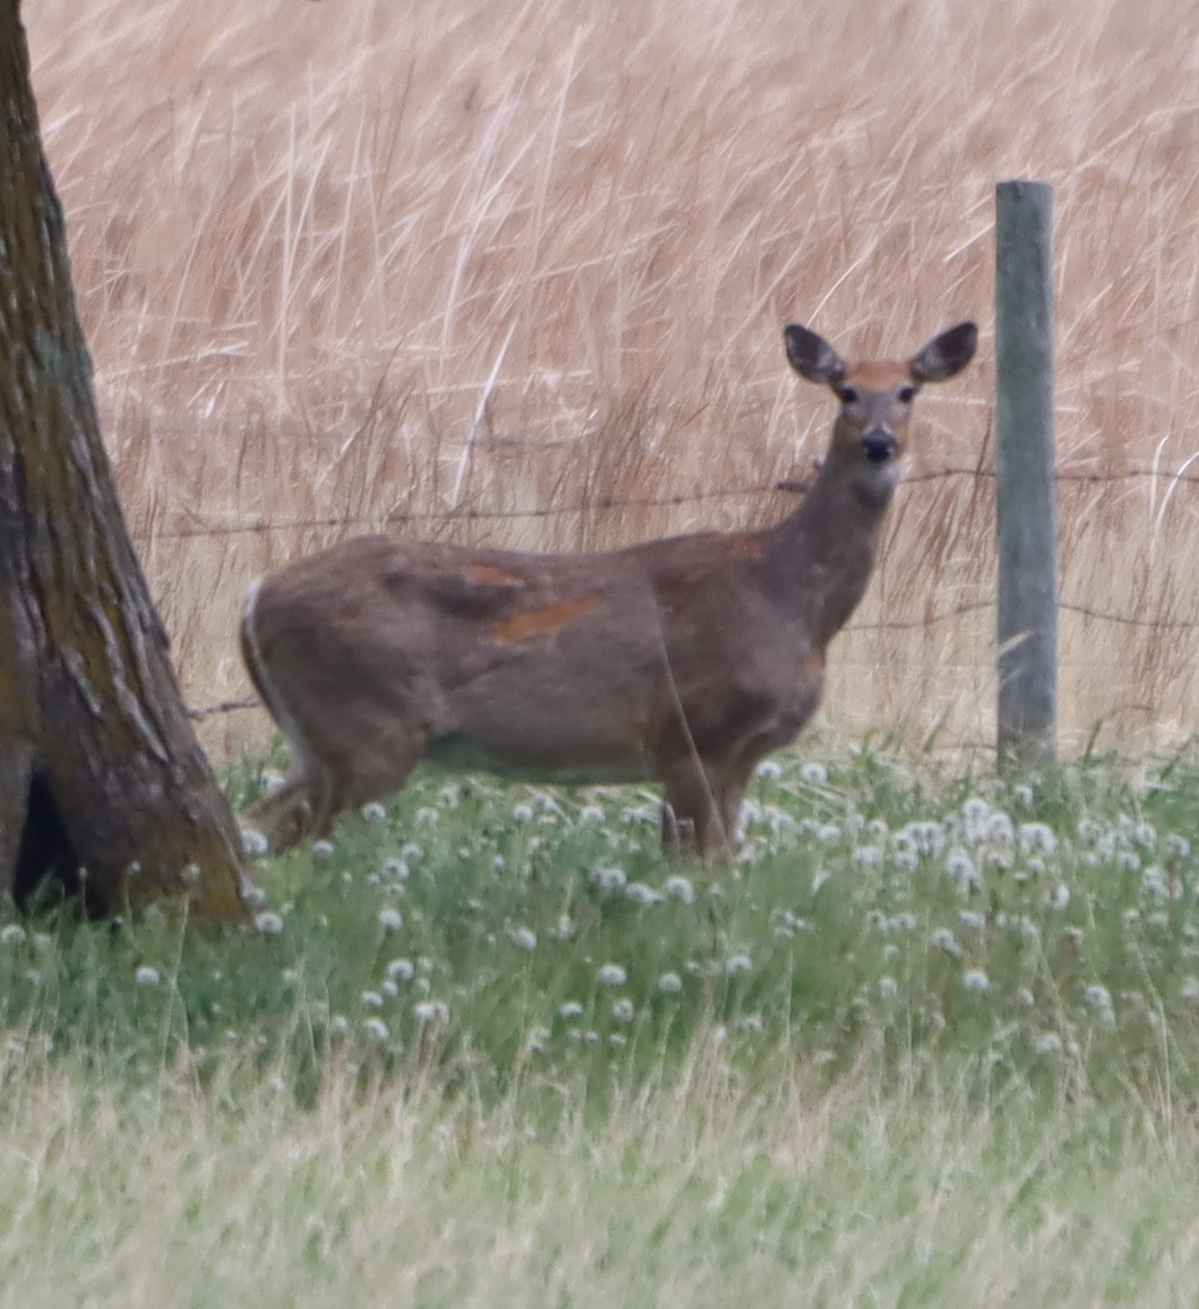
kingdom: Animalia
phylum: Chordata
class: Mammalia
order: Artiodactyla
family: Cervidae
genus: Odocoileus
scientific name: Odocoileus virginianus
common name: White-tailed deer
